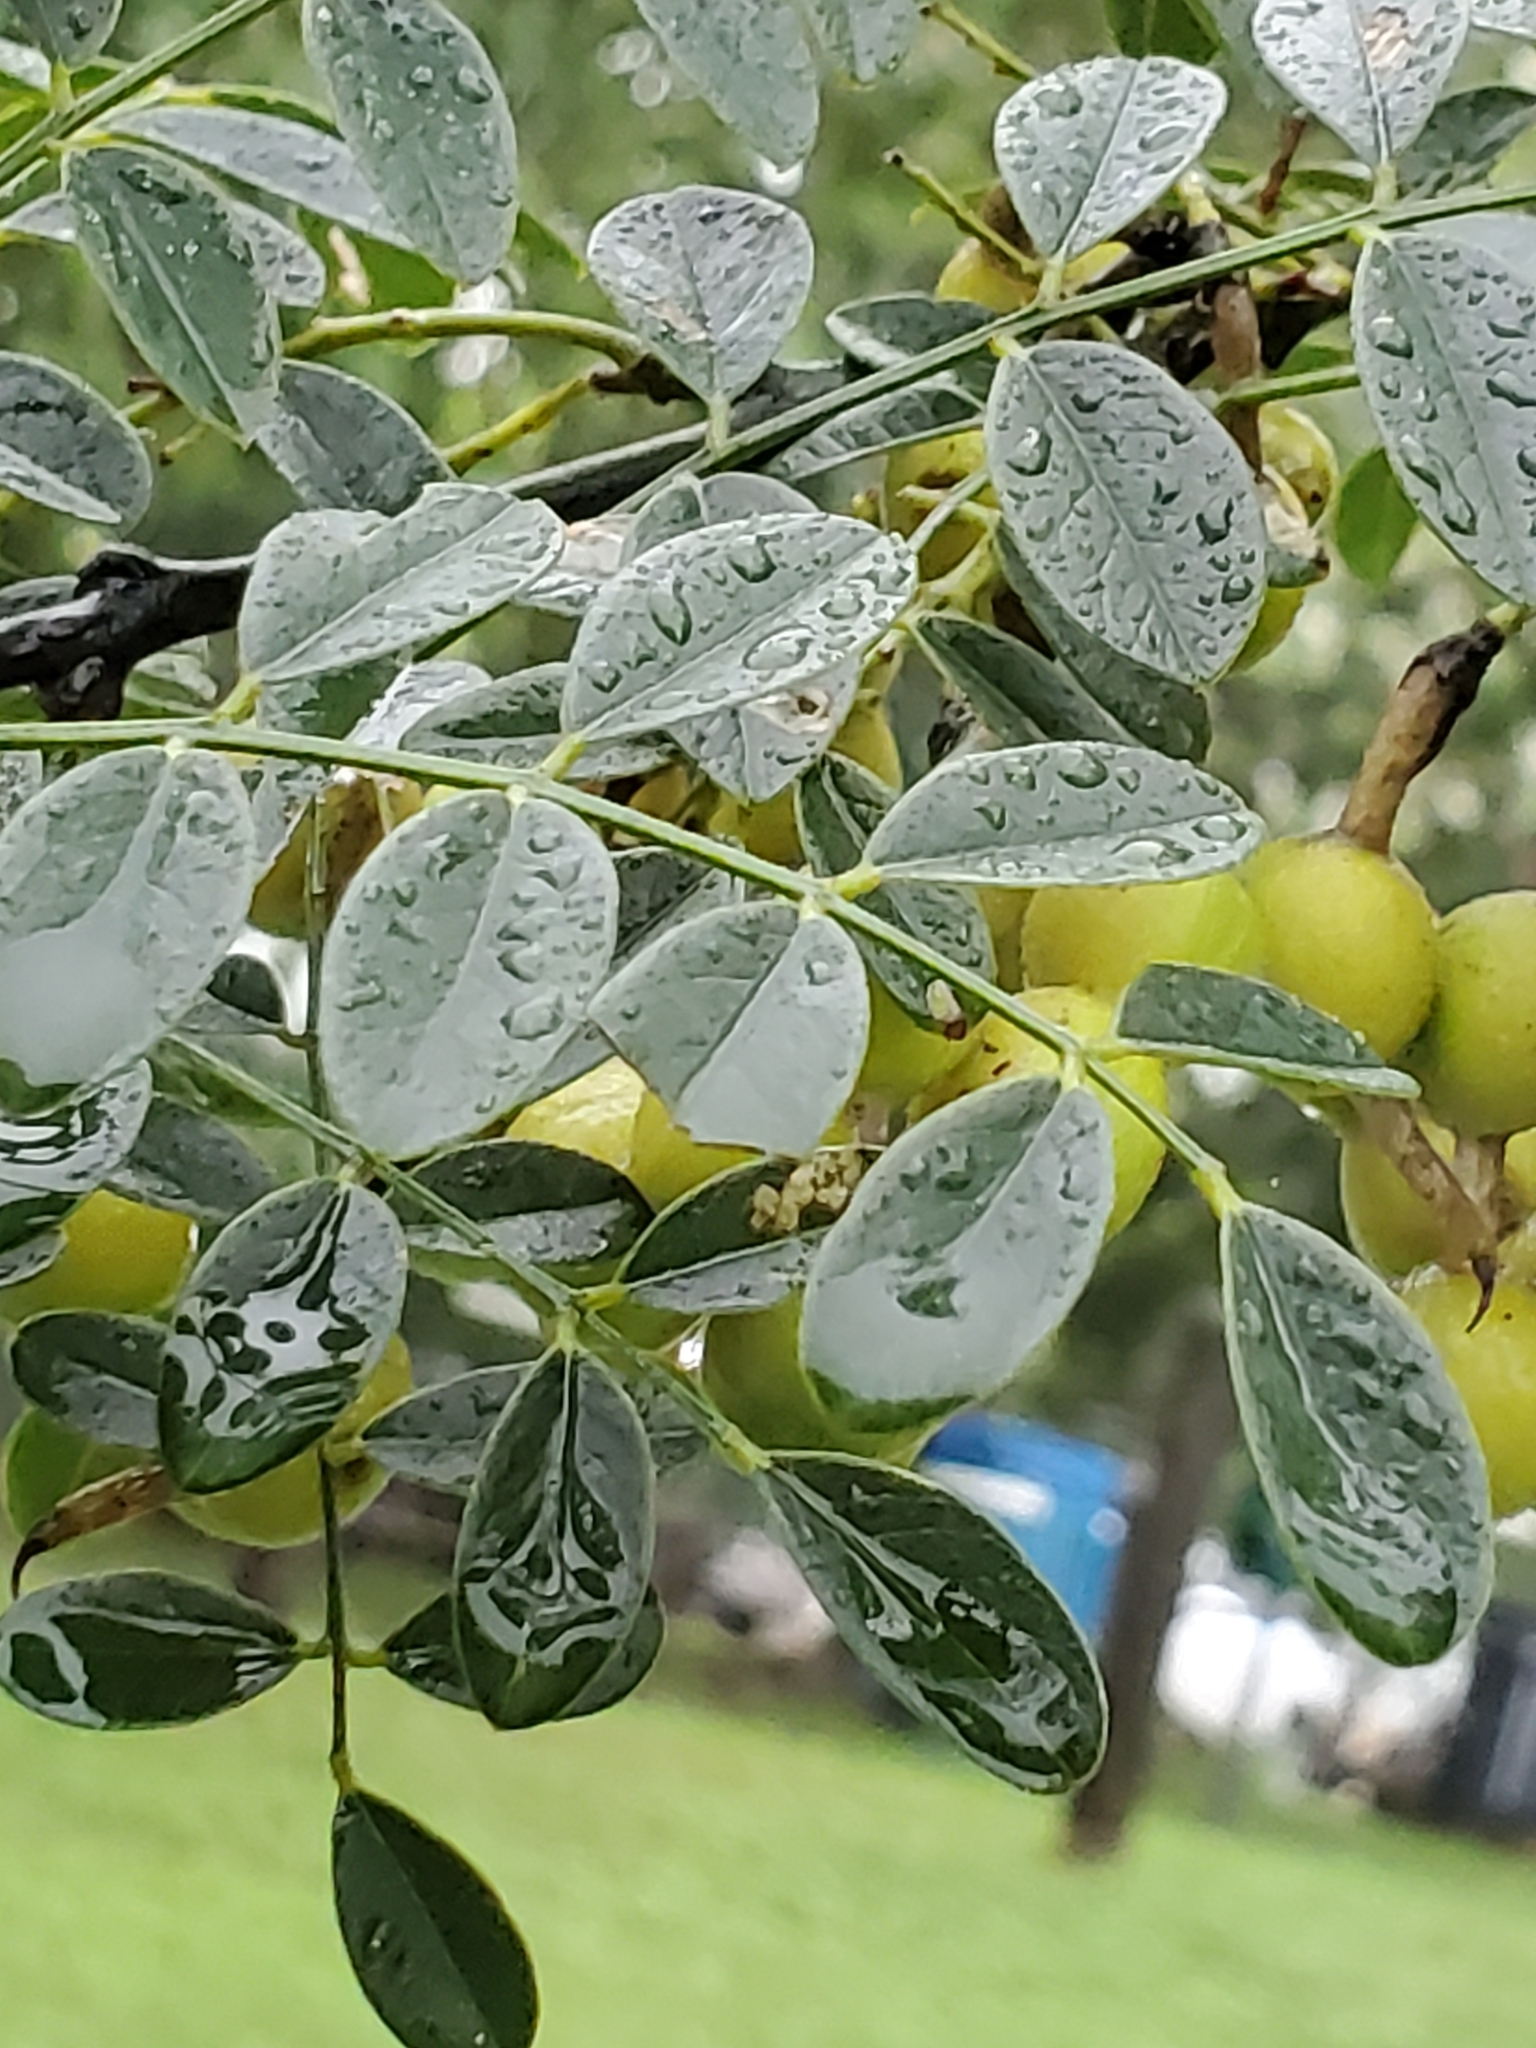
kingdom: Plantae
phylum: Tracheophyta
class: Magnoliopsida
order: Fabales
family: Fabaceae
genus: Styphnolobium
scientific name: Styphnolobium affine
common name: Texas sophora
